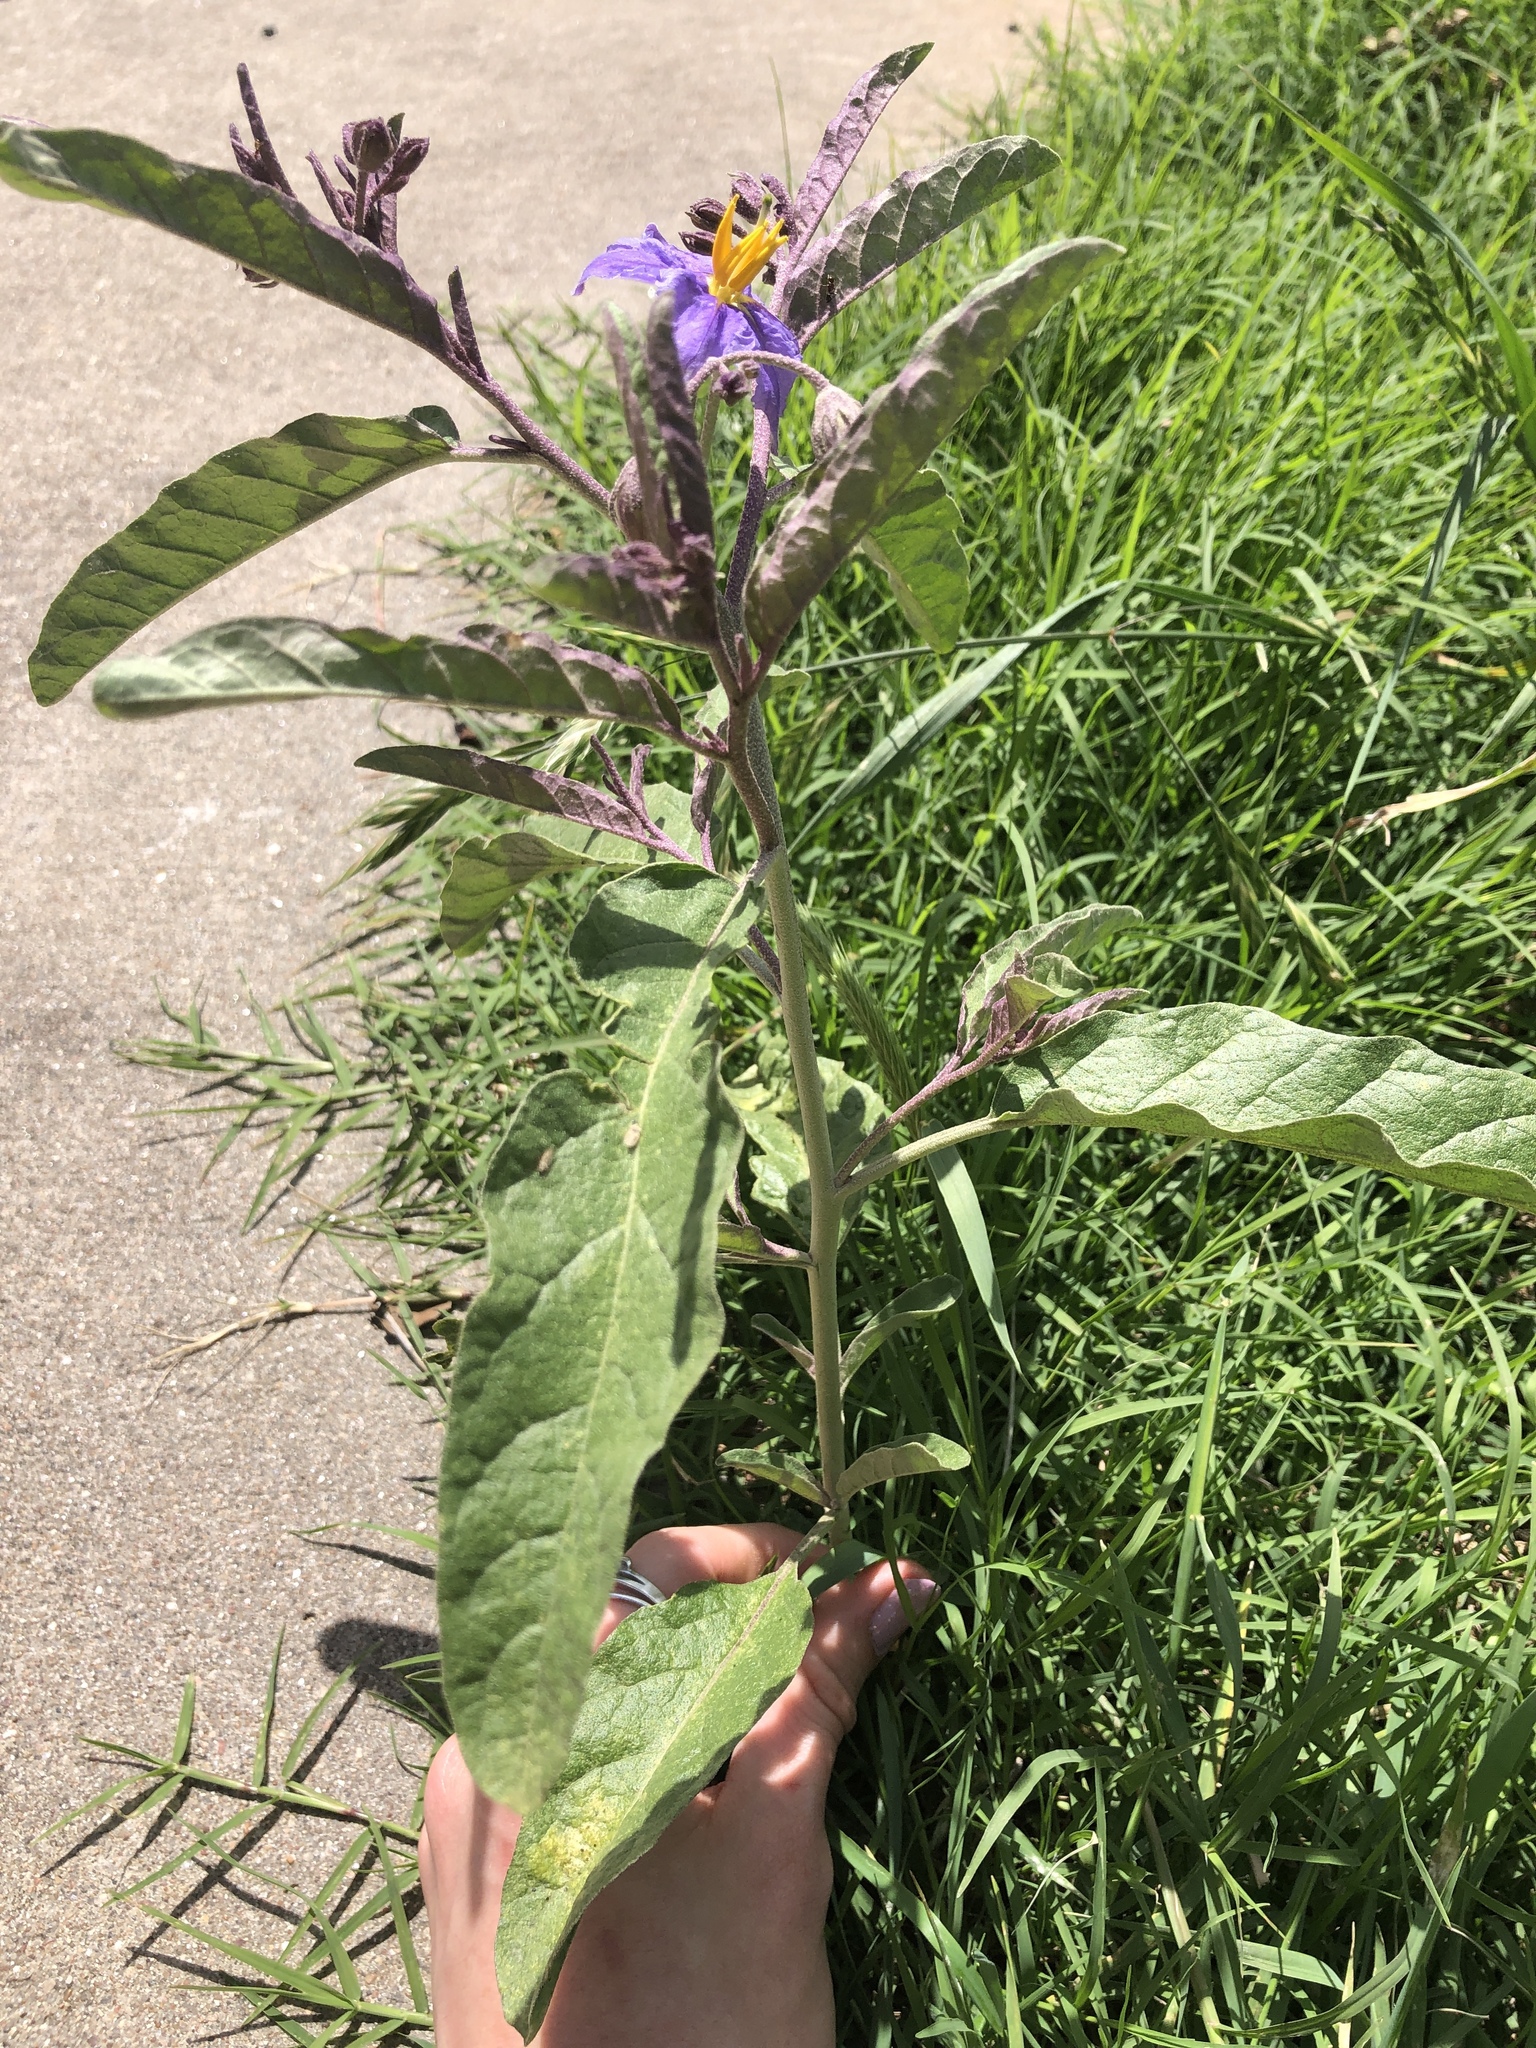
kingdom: Plantae
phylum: Tracheophyta
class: Magnoliopsida
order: Solanales
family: Solanaceae
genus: Solanum
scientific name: Solanum elaeagnifolium
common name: Silverleaf nightshade
